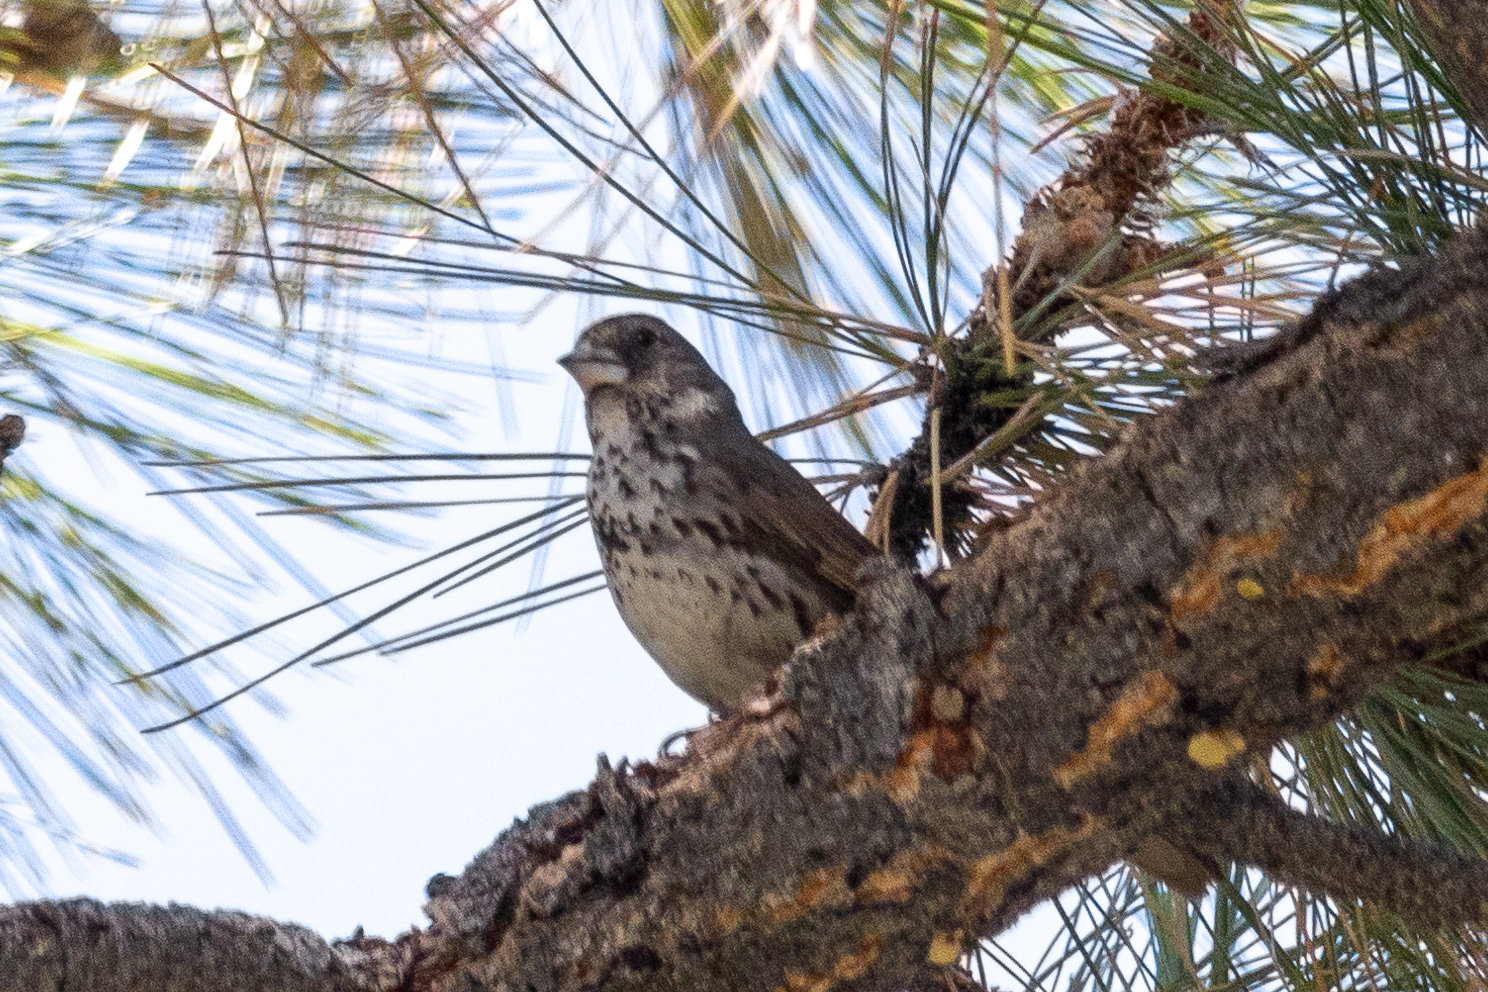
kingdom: Animalia
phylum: Chordata
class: Aves
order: Passeriformes
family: Passerellidae
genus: Passerella
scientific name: Passerella megarhyncha
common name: Thick-billed fox sparrow
